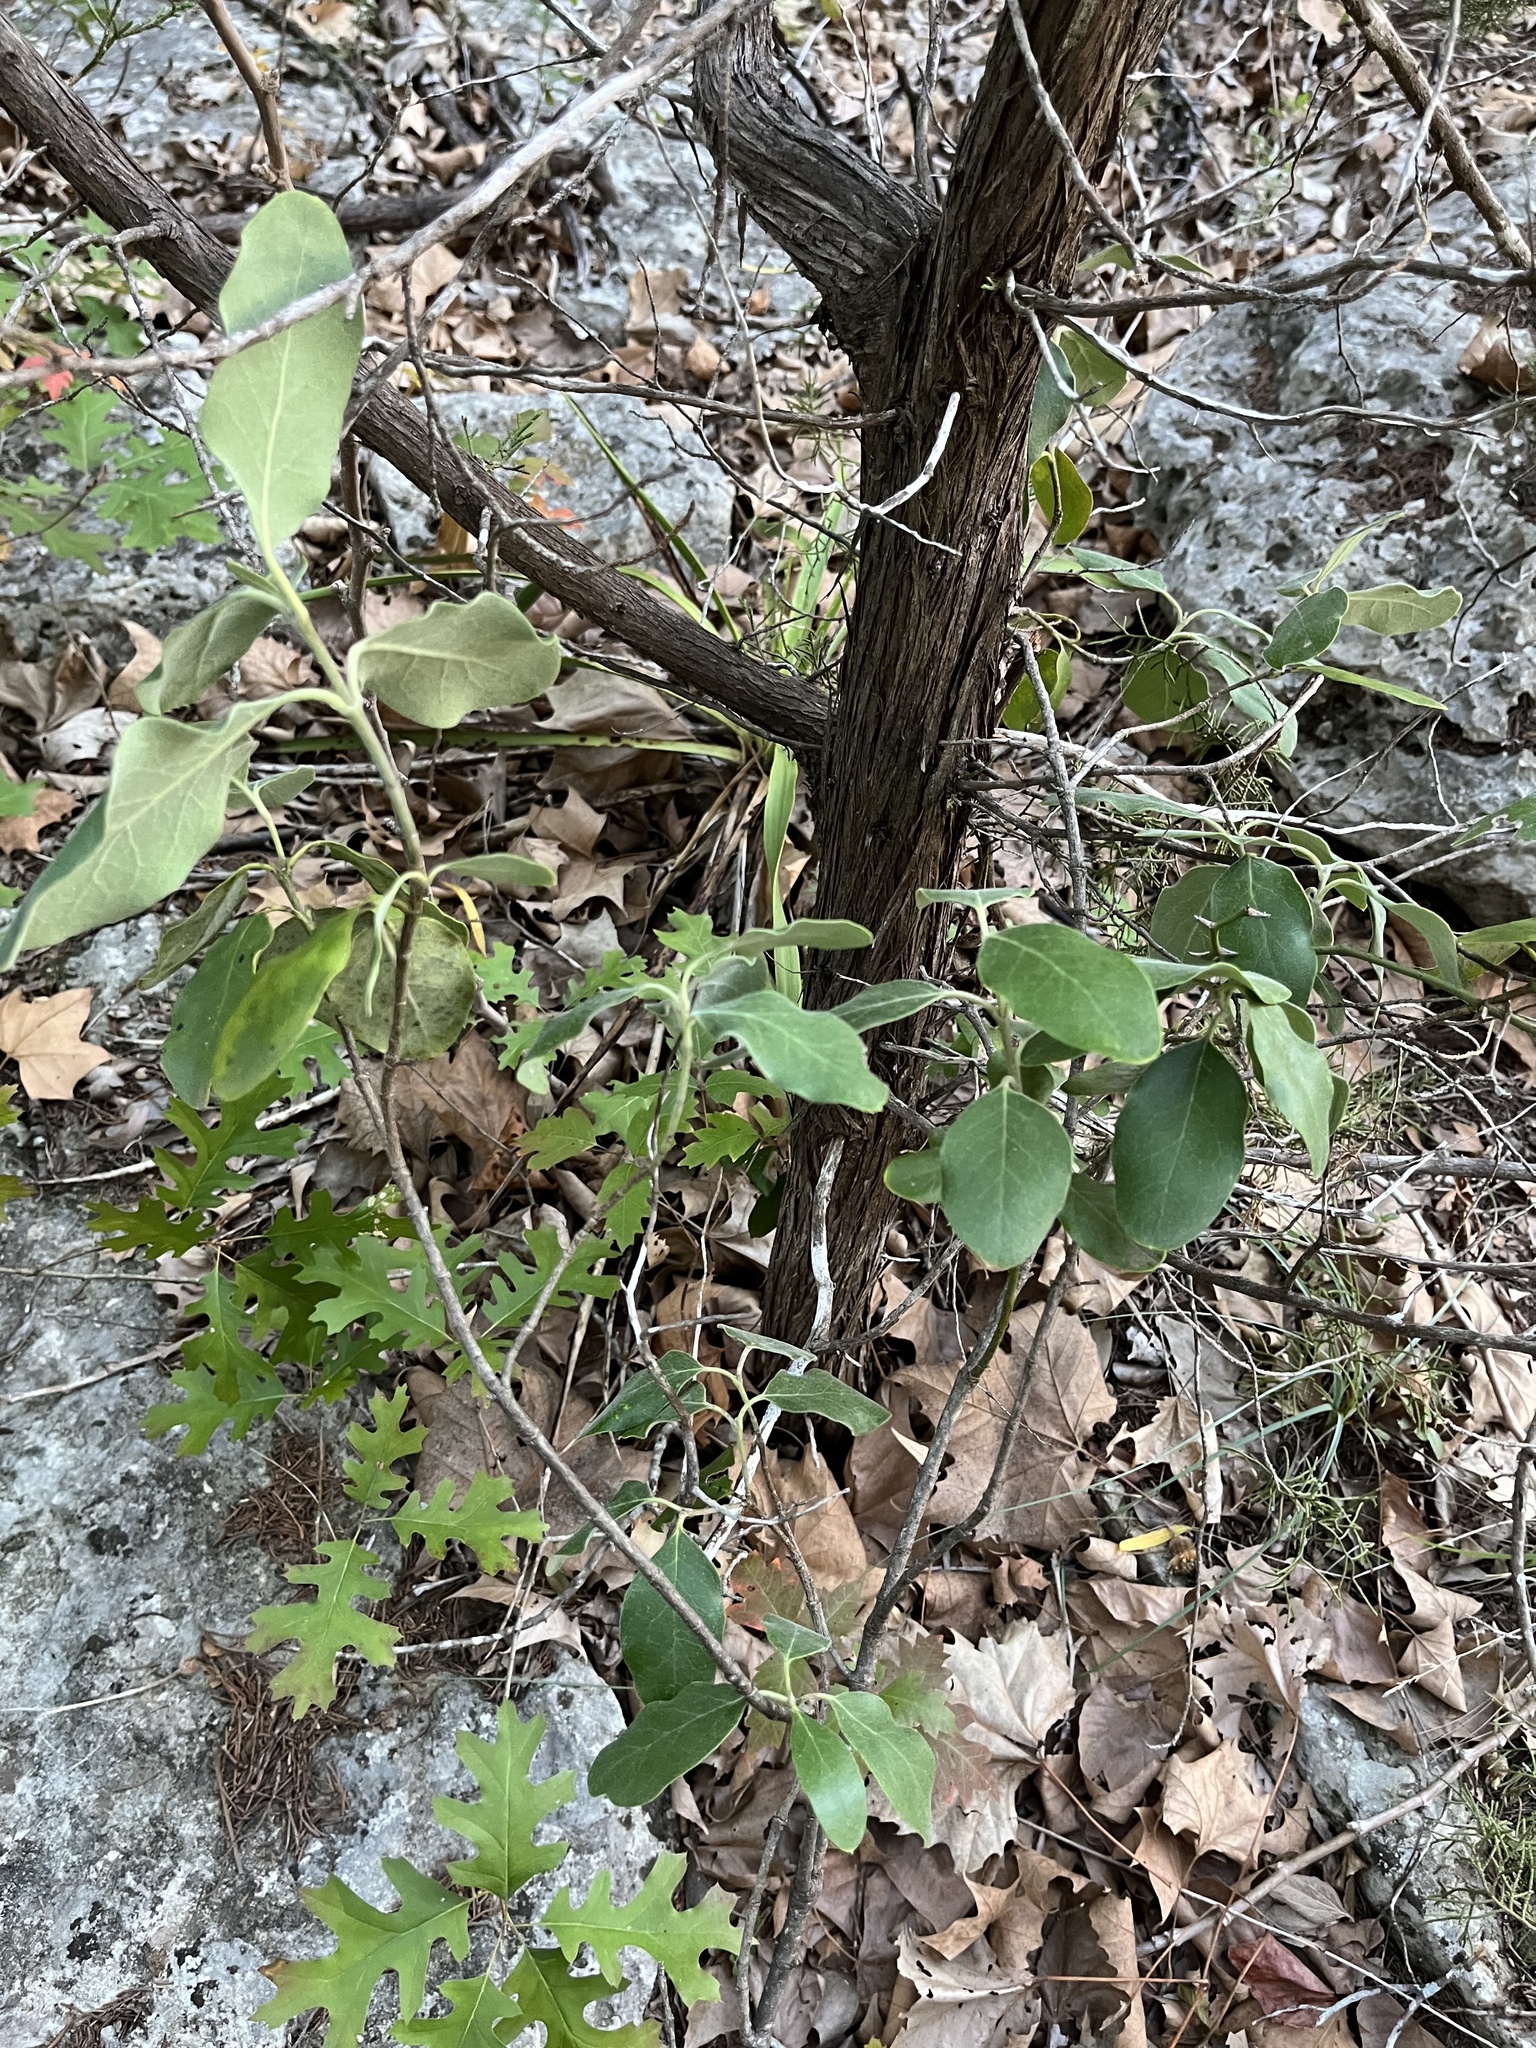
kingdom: Plantae
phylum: Tracheophyta
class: Magnoliopsida
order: Garryales
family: Garryaceae
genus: Garrya
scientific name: Garrya lindheimeri
